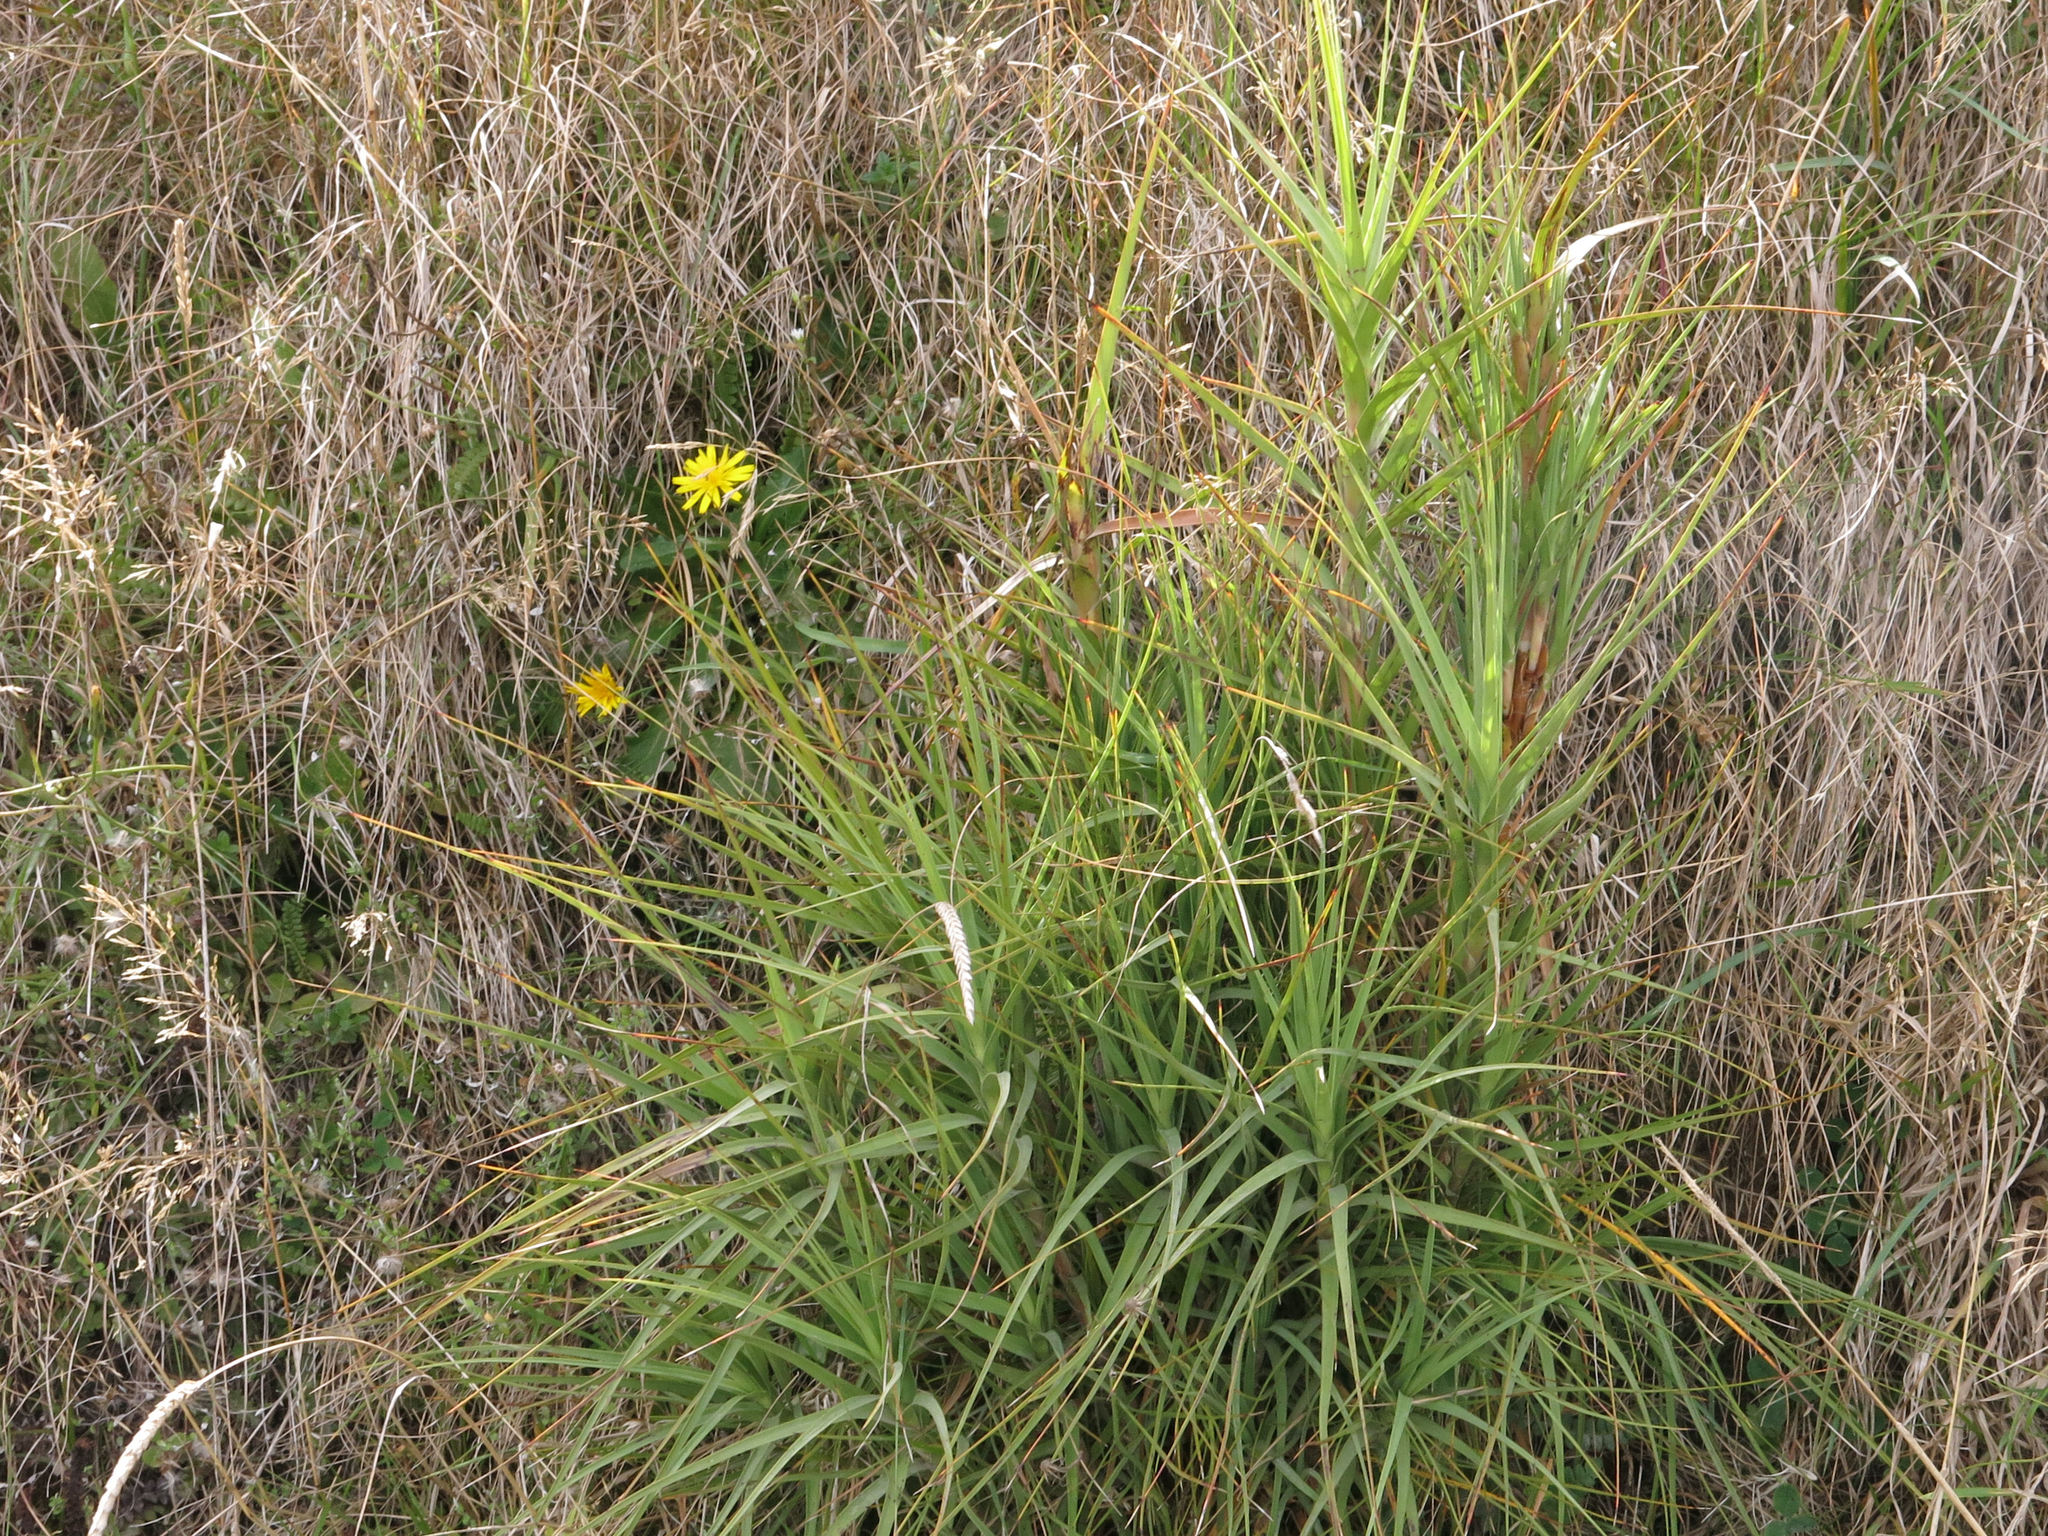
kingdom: Plantae
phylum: Tracheophyta
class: Magnoliopsida
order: Ericales
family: Ericaceae
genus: Dracophyllum
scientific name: Dracophyllum longifolium
